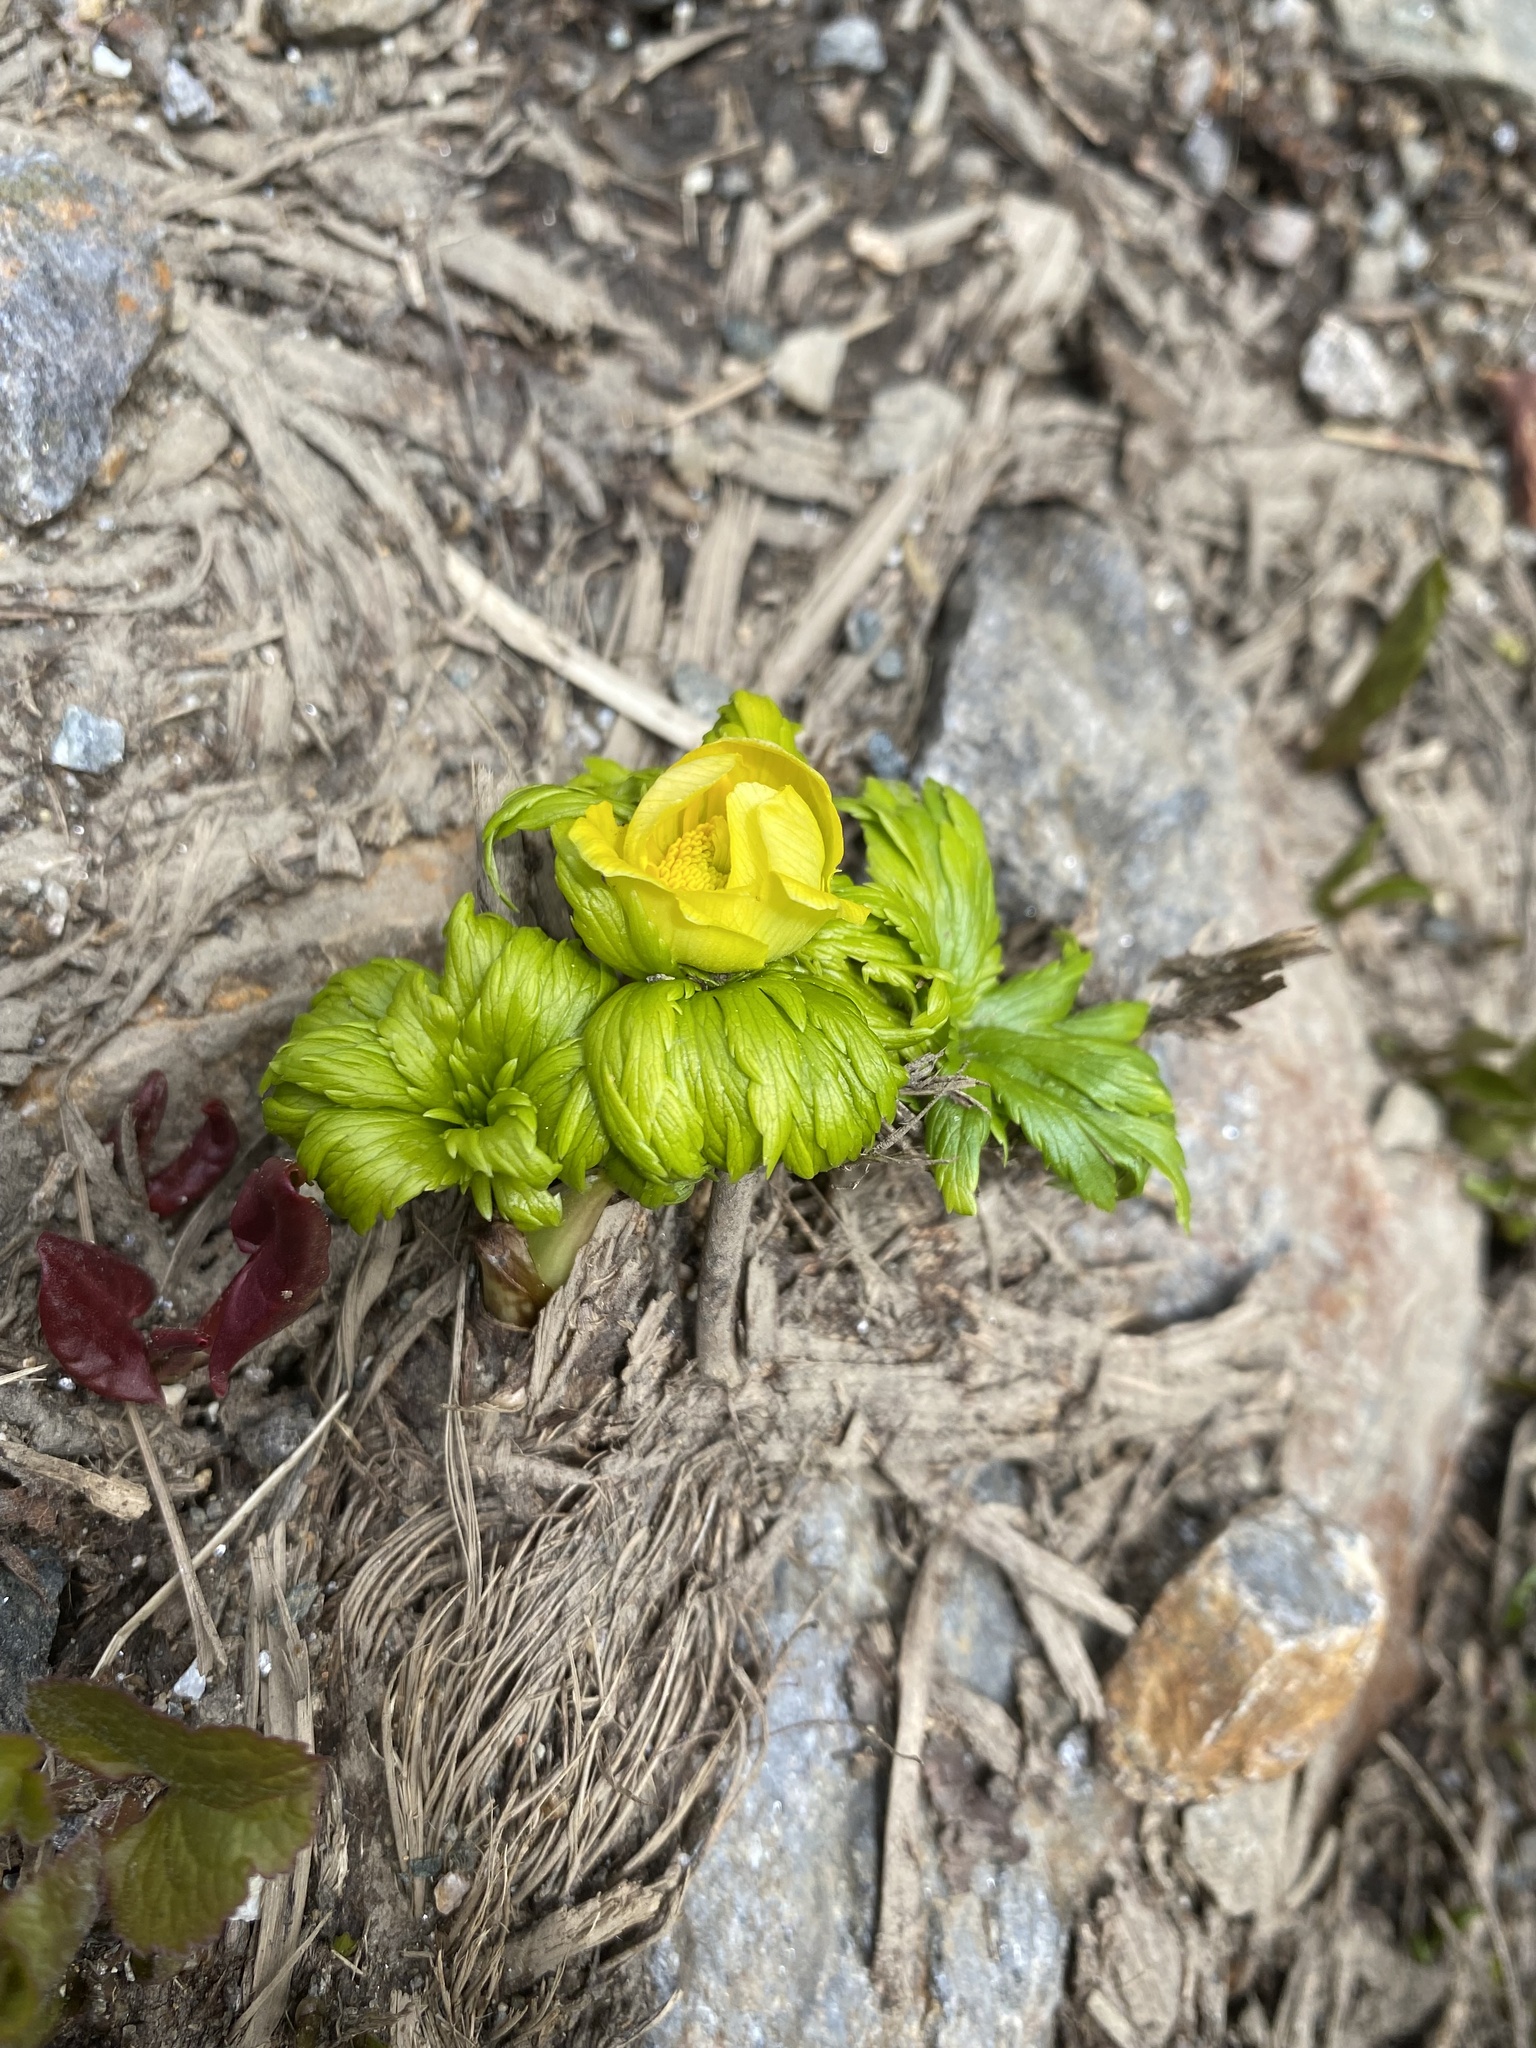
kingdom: Plantae
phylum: Tracheophyta
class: Magnoliopsida
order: Ranunculales
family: Ranunculaceae
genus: Trollius
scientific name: Trollius ranunculinus
